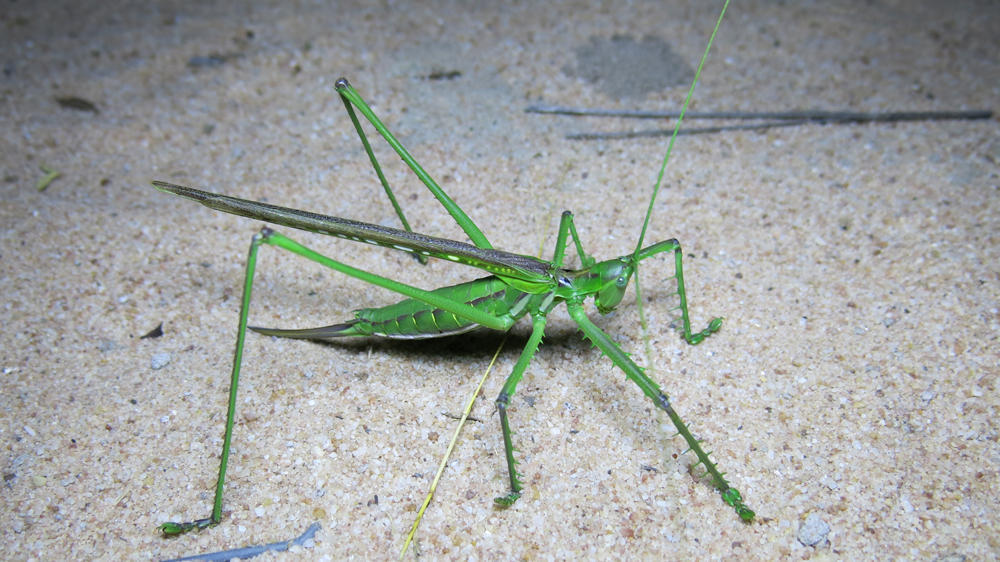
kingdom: Animalia
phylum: Arthropoda
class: Insecta
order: Orthoptera
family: Tettigoniidae
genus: Clonia
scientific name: Clonia wahlbergi
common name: Wahlberg's clonia
